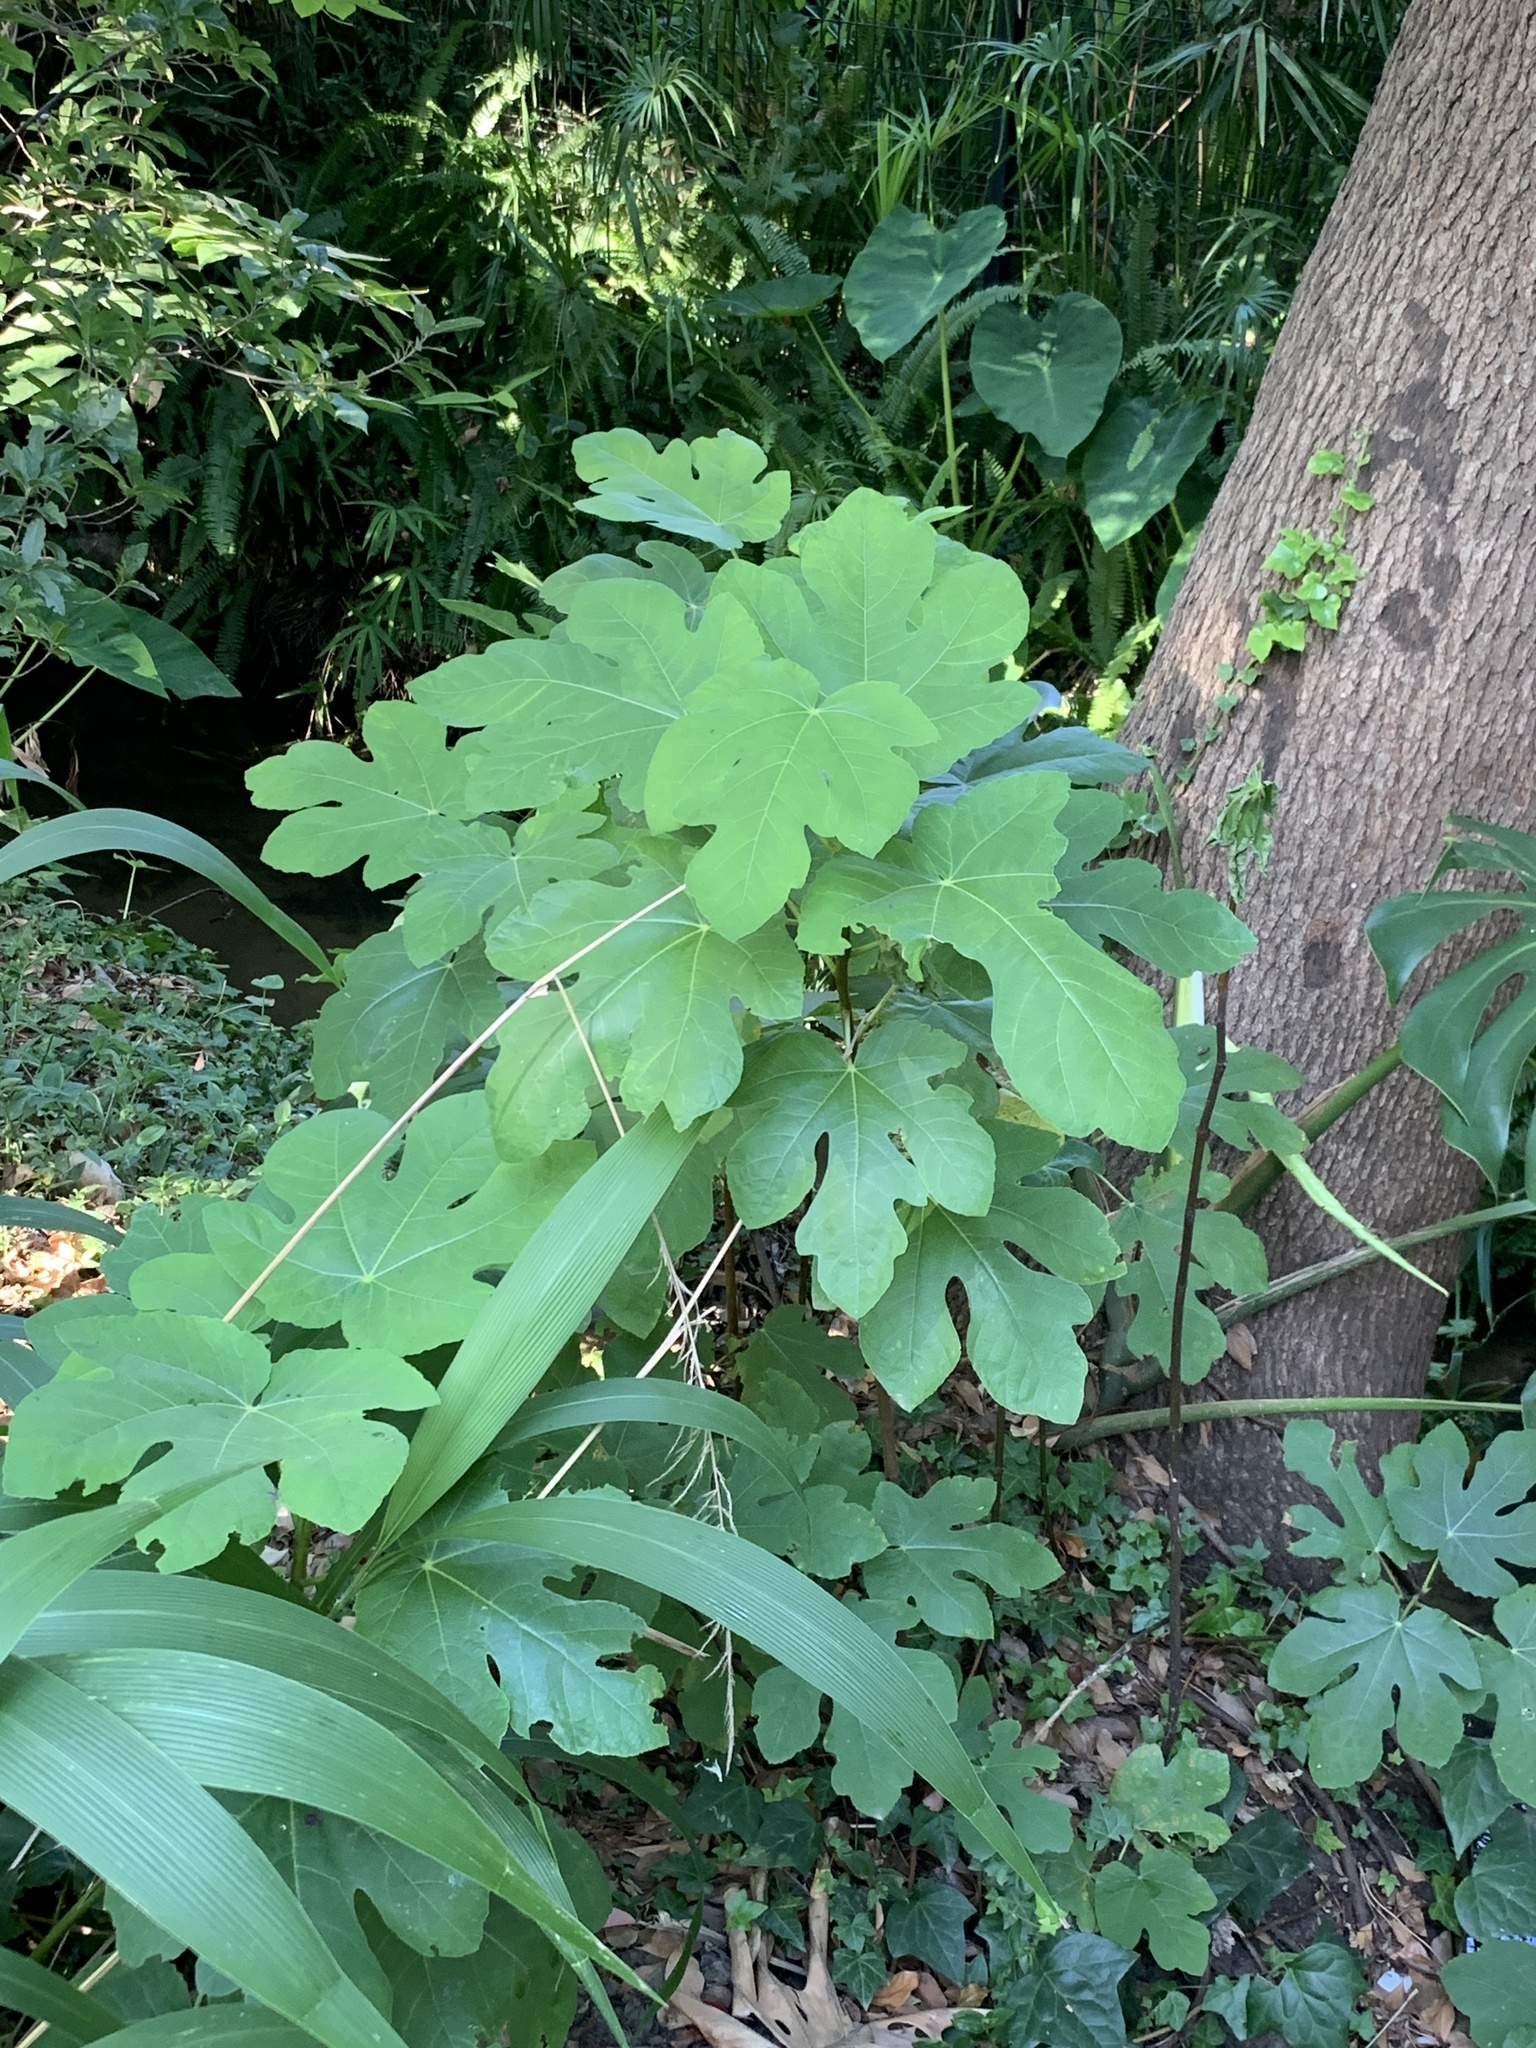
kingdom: Plantae
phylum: Tracheophyta
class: Magnoliopsida
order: Rosales
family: Moraceae
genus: Ficus
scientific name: Ficus carica
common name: Fig
